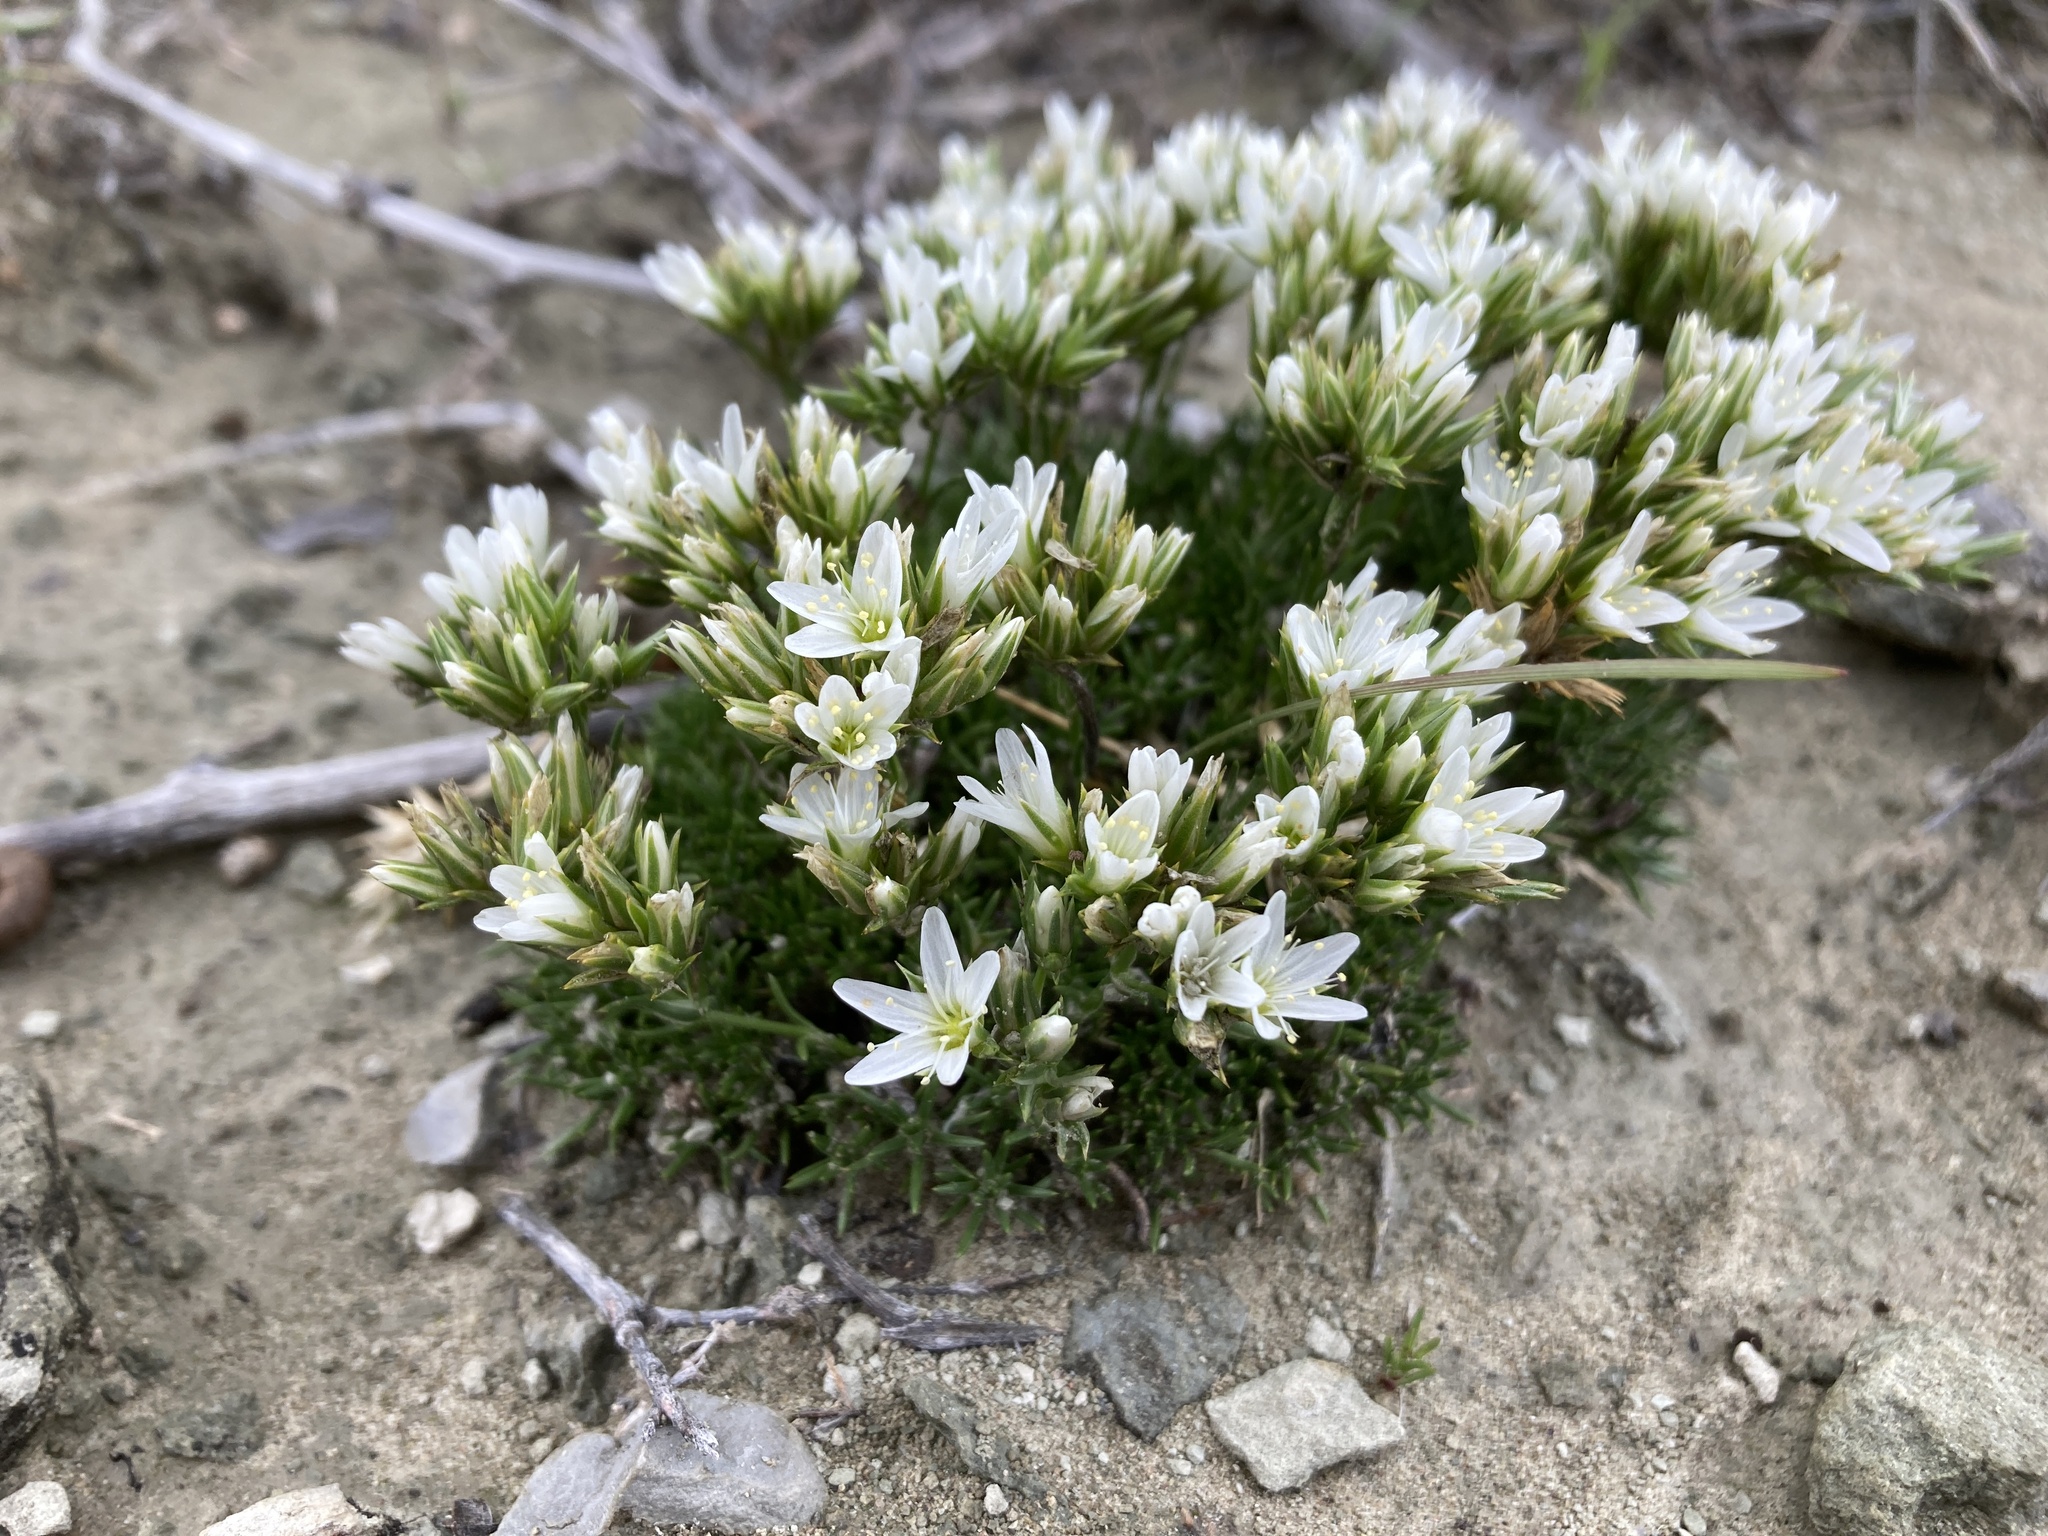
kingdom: Plantae
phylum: Tracheophyta
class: Magnoliopsida
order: Caryophyllales
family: Caryophyllaceae
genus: Eremogone
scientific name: Eremogone hookeri
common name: Hooker's sandwort
